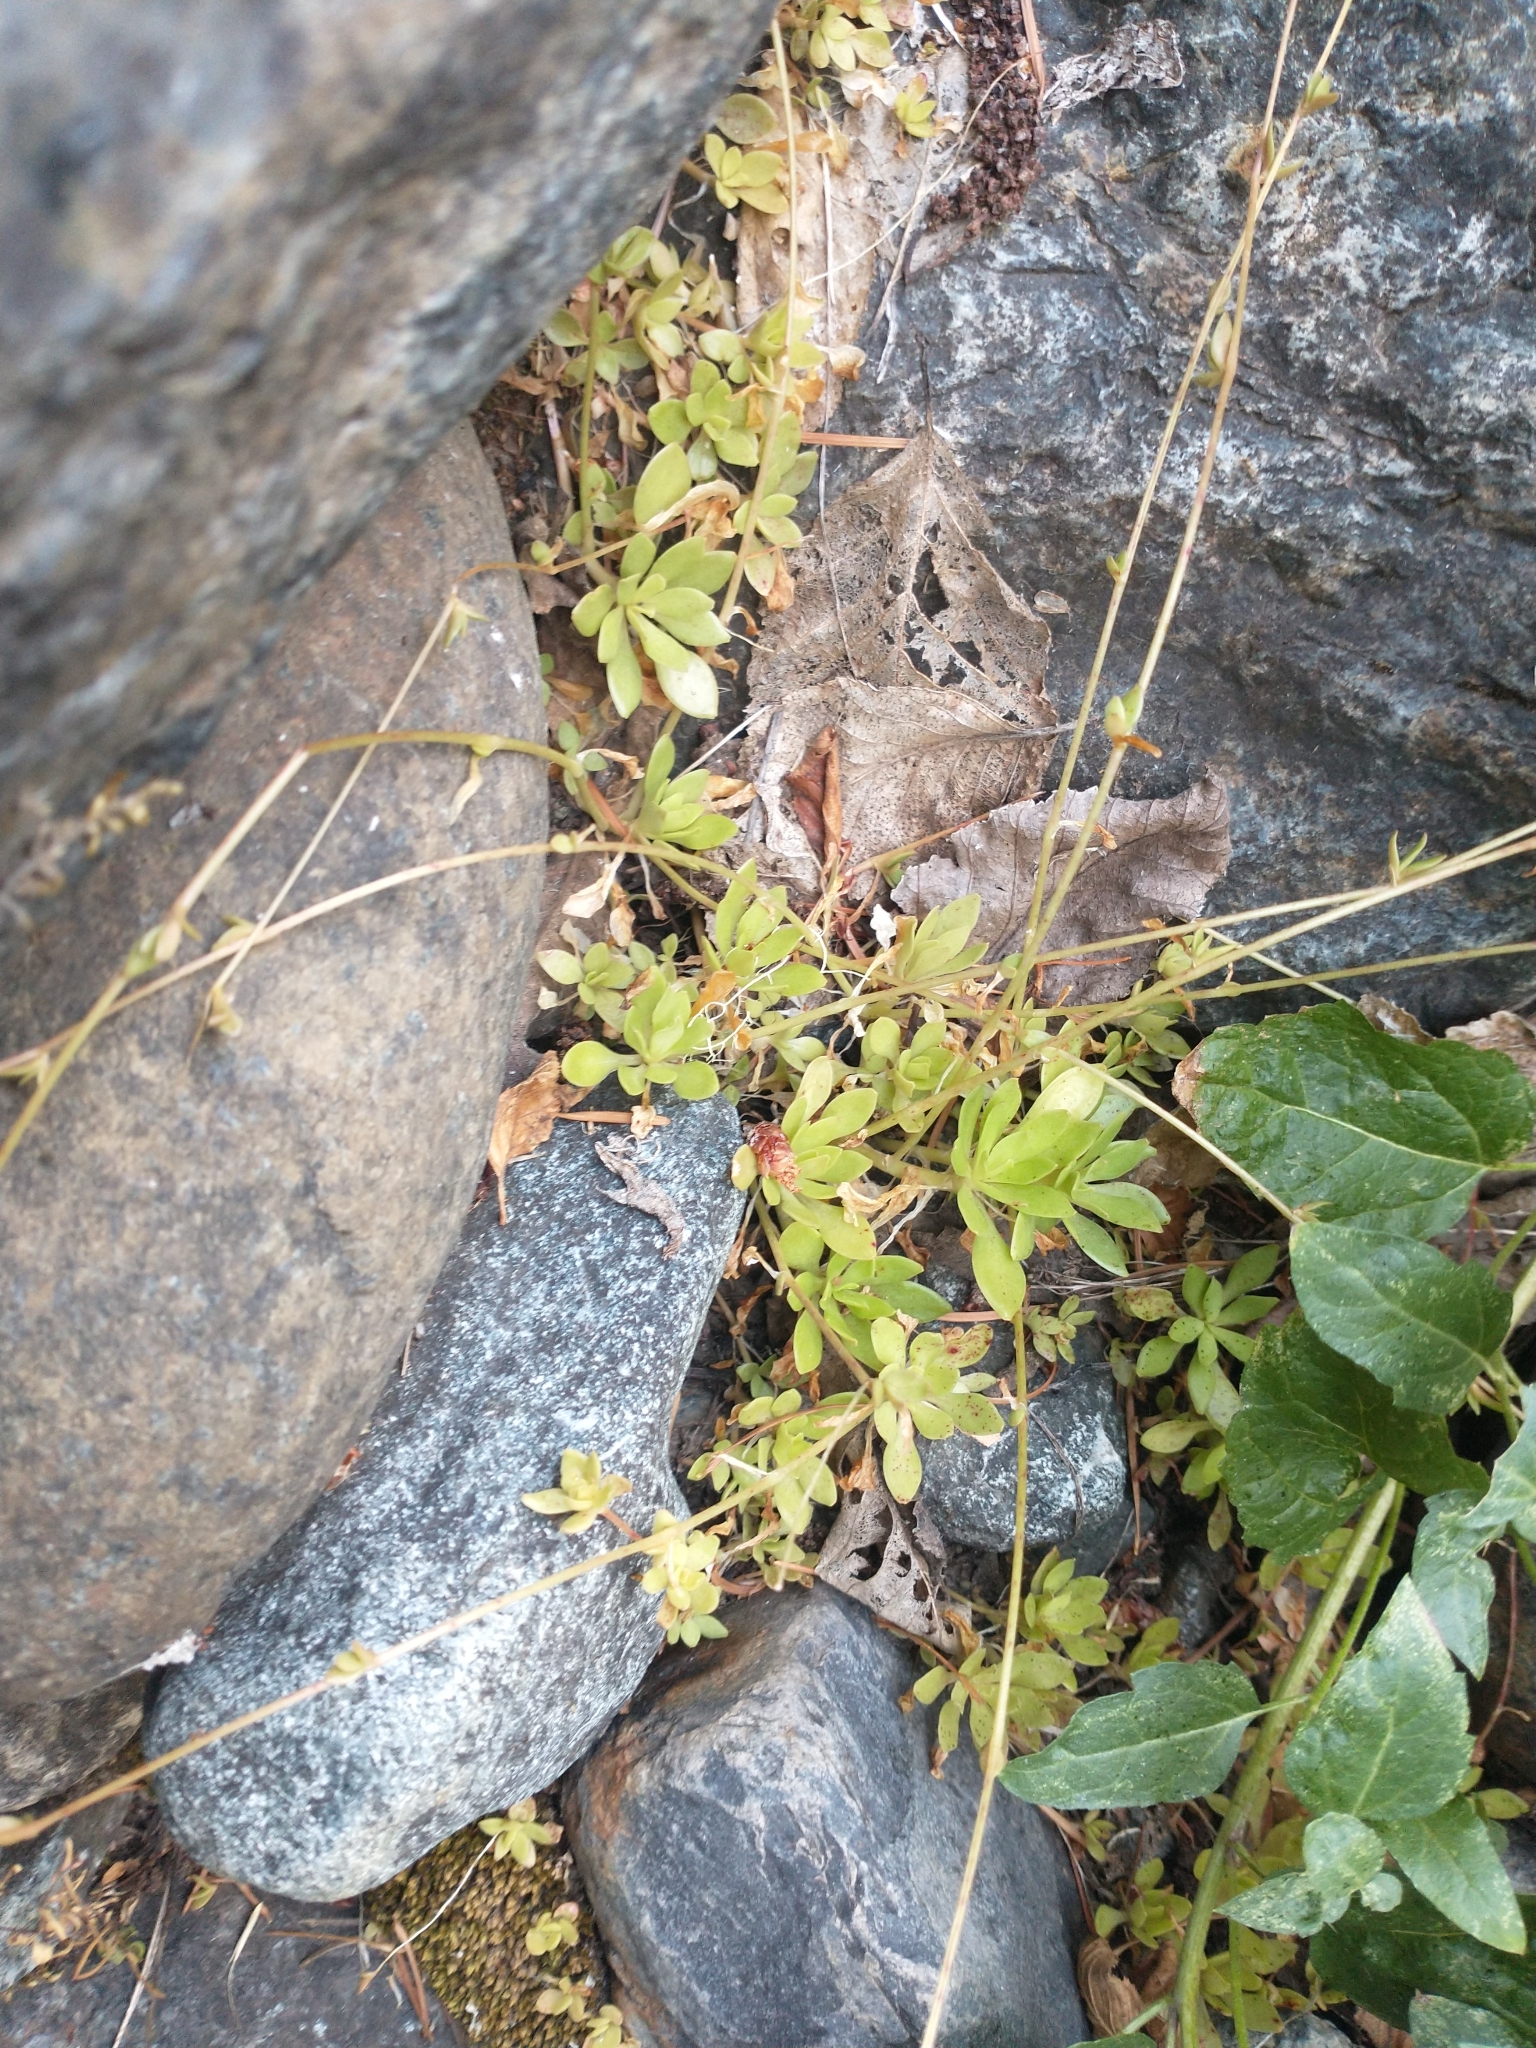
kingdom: Plantae
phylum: Tracheophyta
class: Magnoliopsida
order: Caryophyllales
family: Montiaceae
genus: Montia
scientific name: Montia parvifolia
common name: Small-leaved blinks
